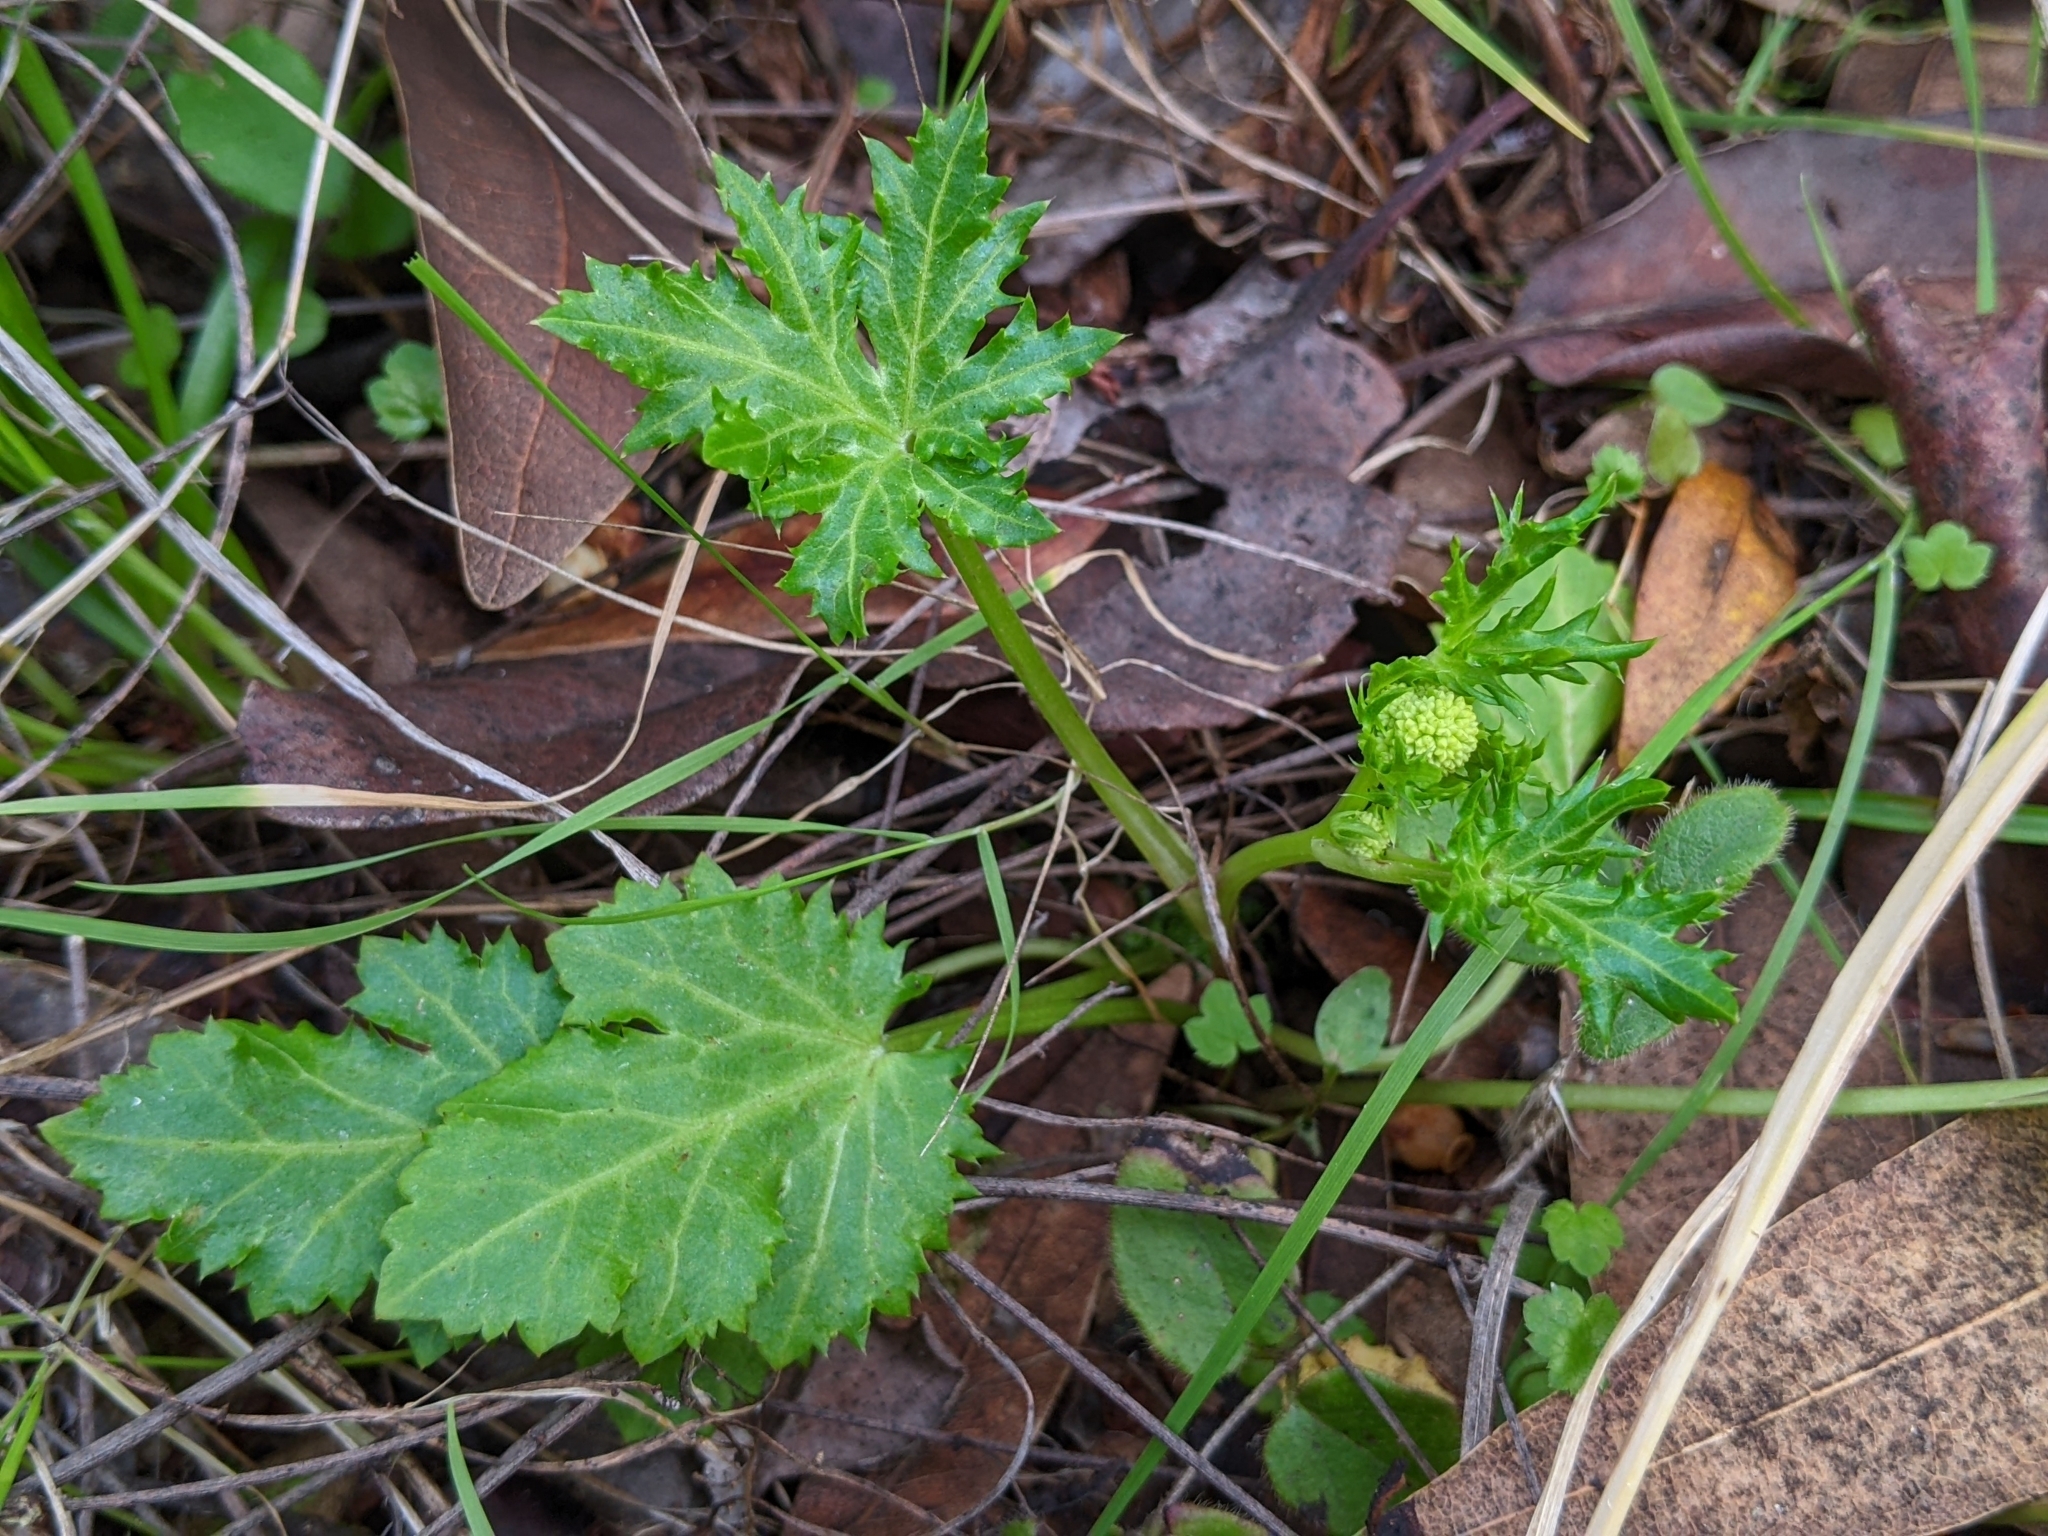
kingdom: Plantae
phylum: Tracheophyta
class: Magnoliopsida
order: Apiales
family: Apiaceae
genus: Sanicula
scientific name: Sanicula laciniata
